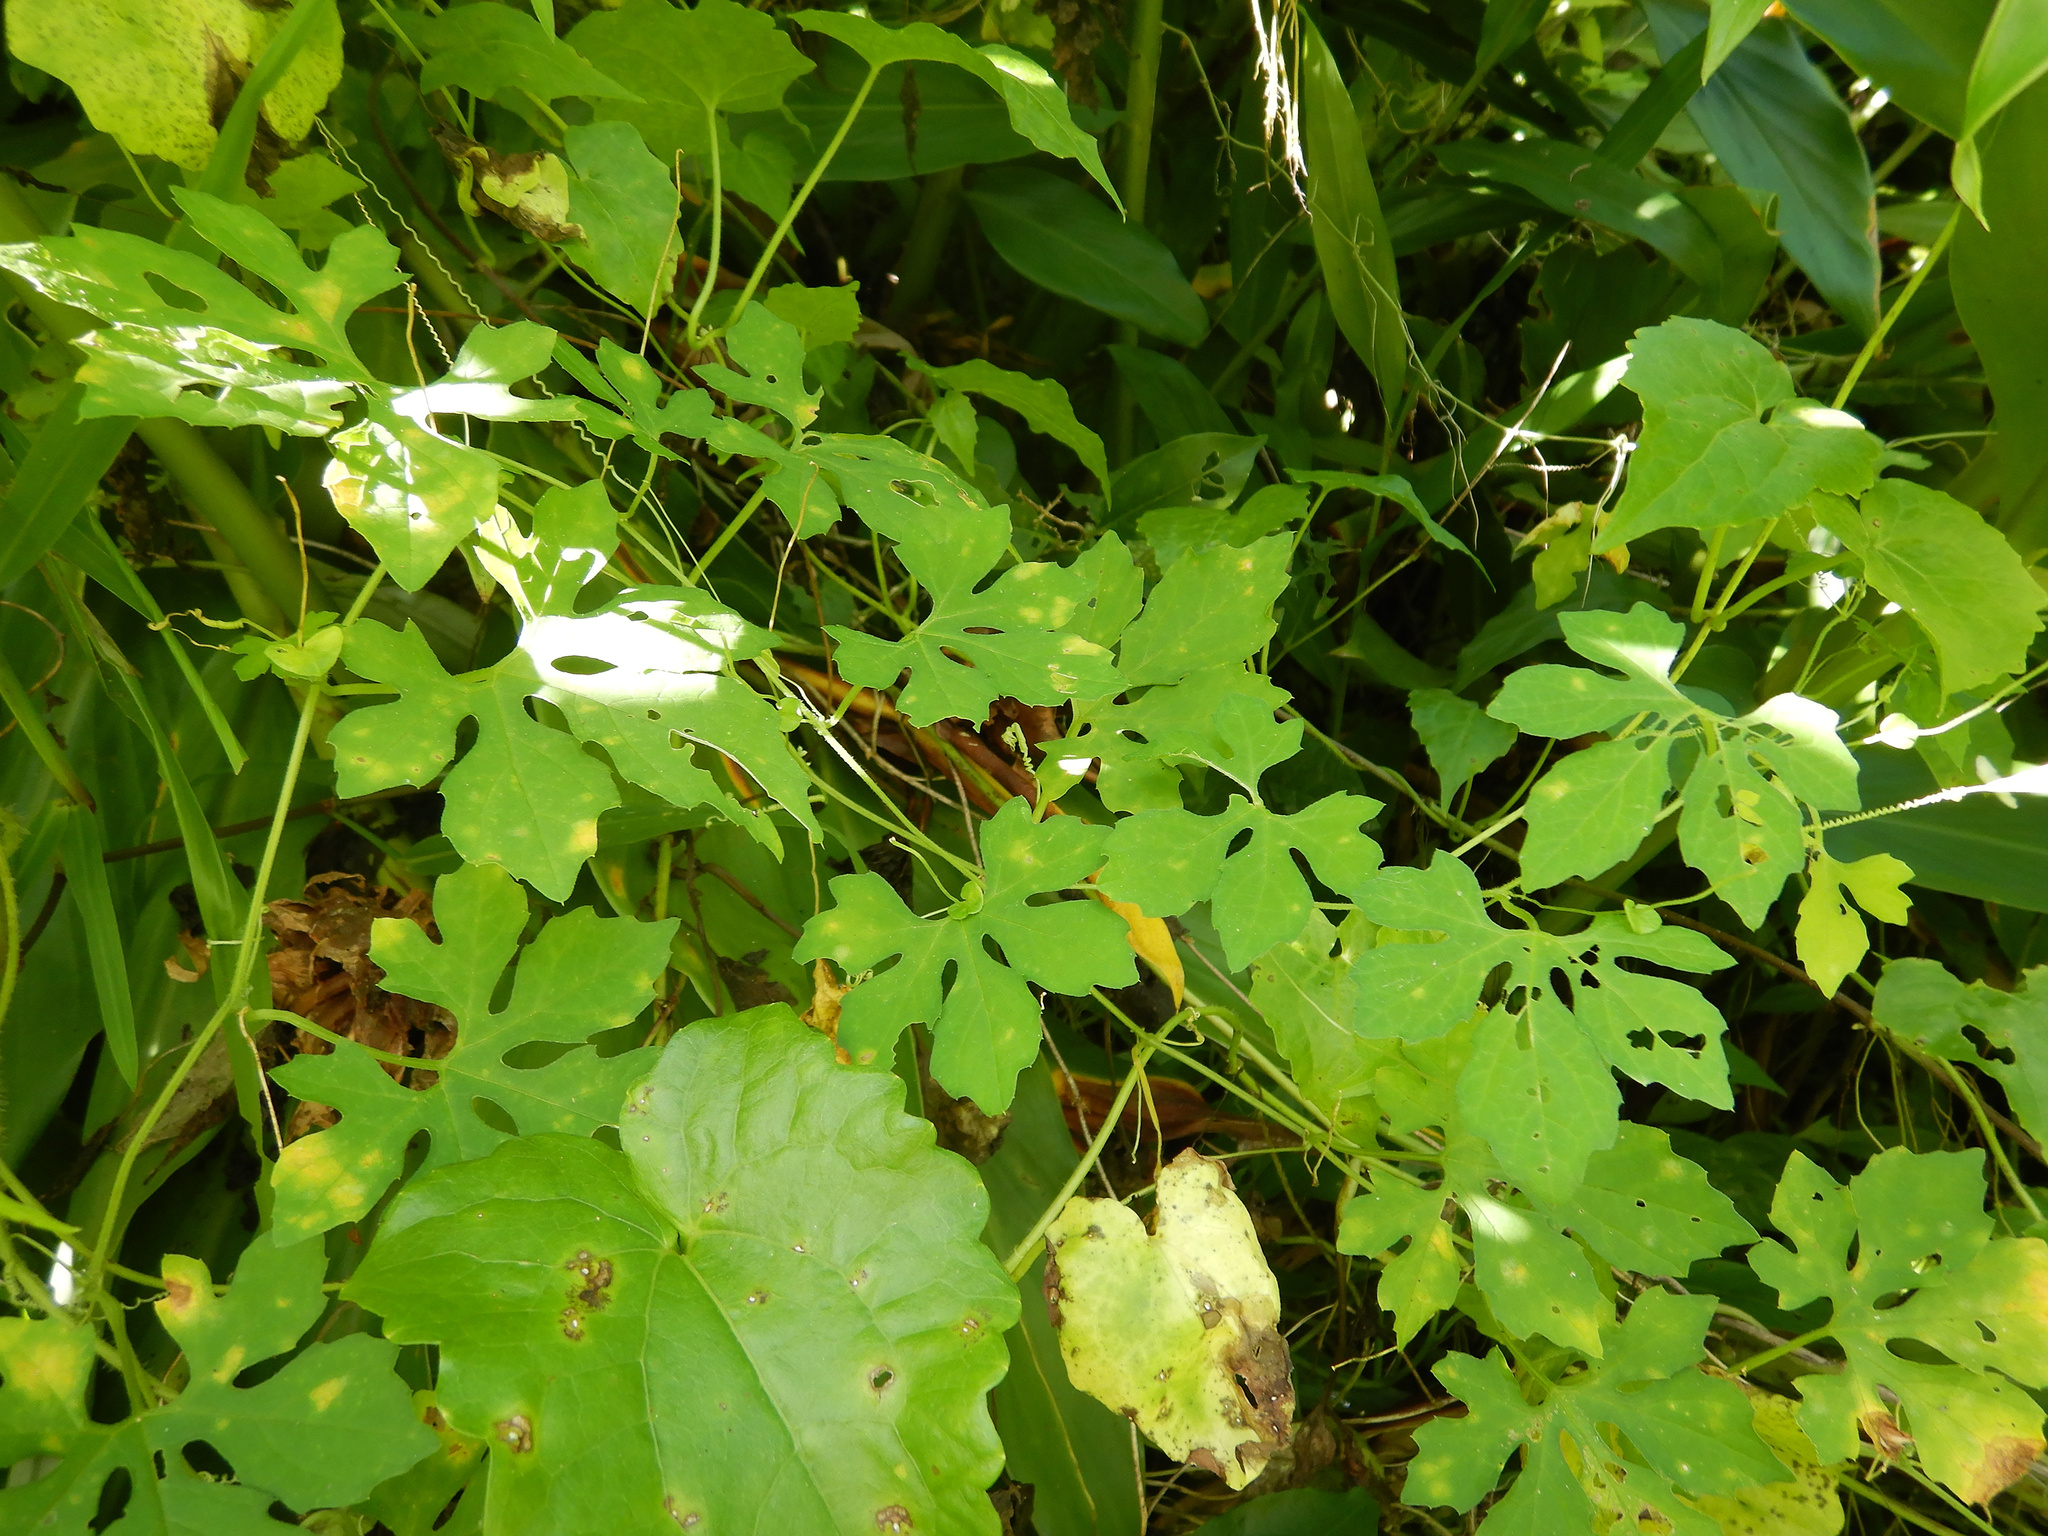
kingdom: Plantae
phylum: Tracheophyta
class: Magnoliopsida
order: Cucurbitales
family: Cucurbitaceae
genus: Momordica
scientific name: Momordica charantia
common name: Balsampear
